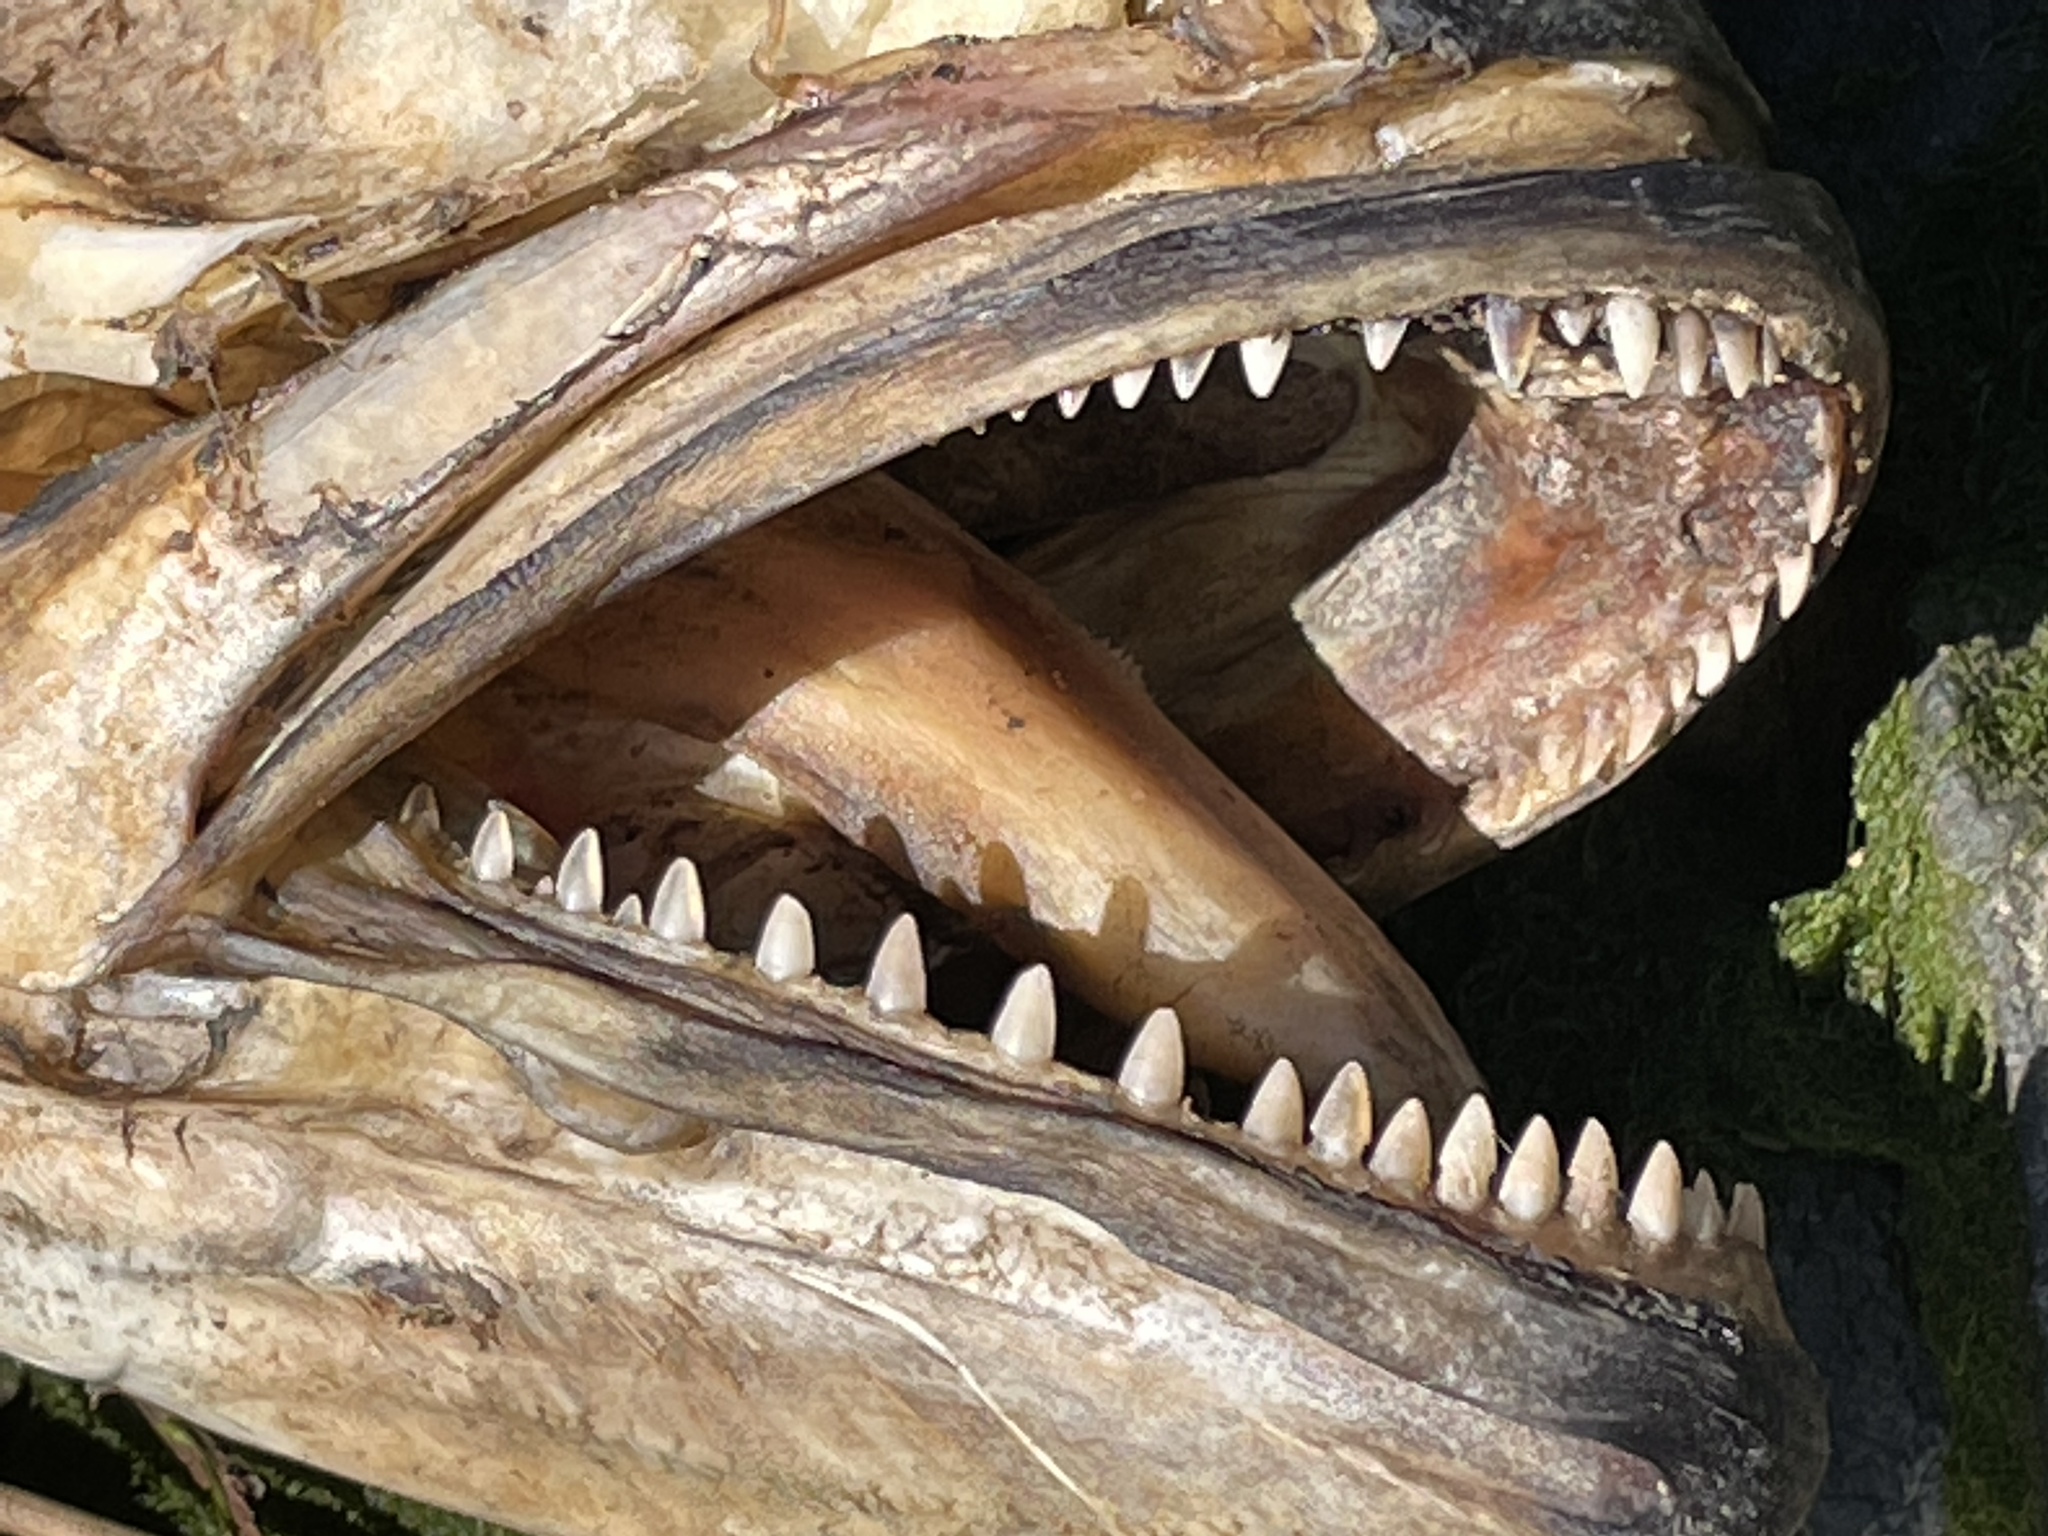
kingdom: Animalia
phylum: Chordata
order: Perciformes
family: Pomatomidae
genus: Pomatomus
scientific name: Pomatomus saltatrix
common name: Bluefish
